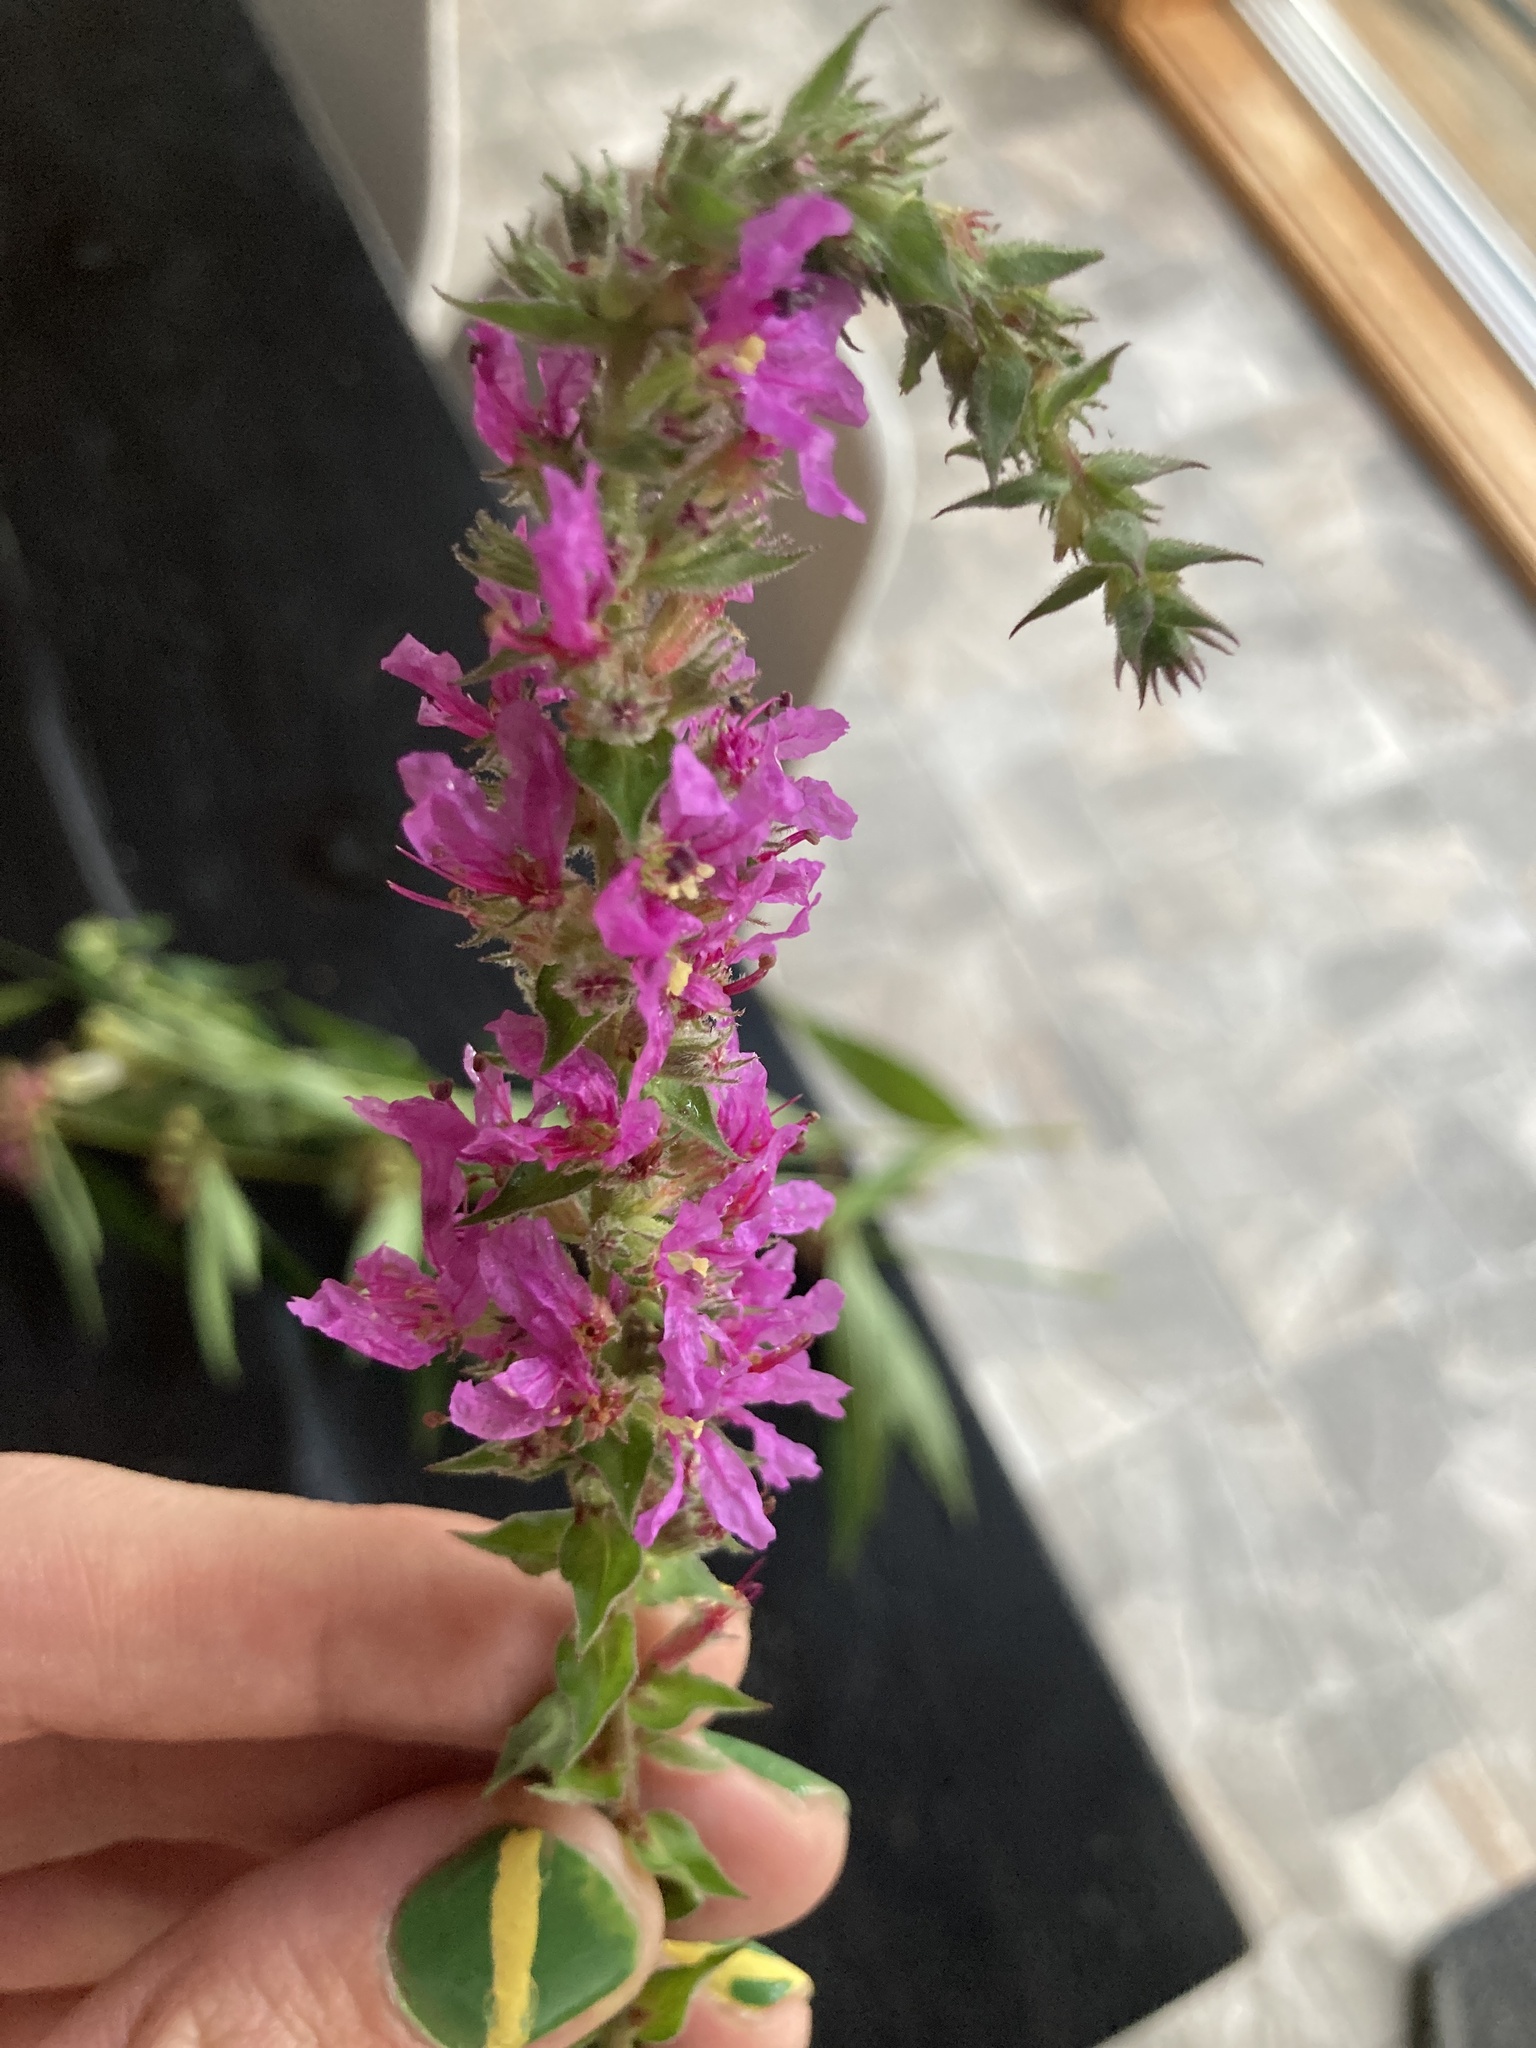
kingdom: Plantae
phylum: Tracheophyta
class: Magnoliopsida
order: Myrtales
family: Lythraceae
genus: Lythrum
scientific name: Lythrum salicaria
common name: Purple loosestrife
